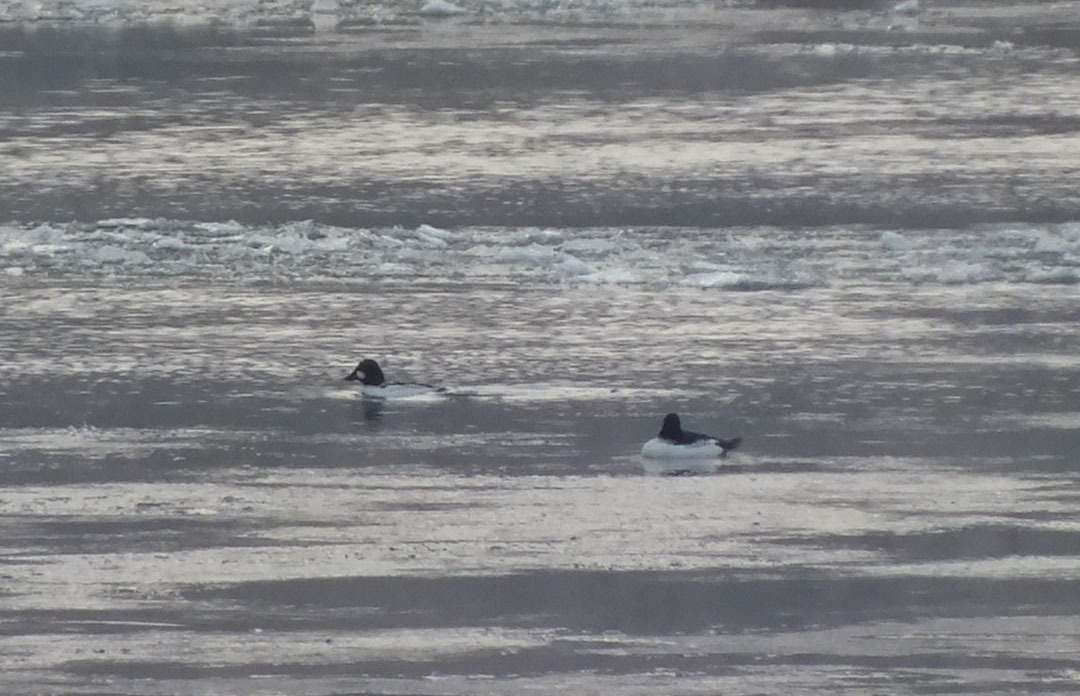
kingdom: Animalia
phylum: Chordata
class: Aves
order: Anseriformes
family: Anatidae
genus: Bucephala
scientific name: Bucephala clangula
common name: Common goldeneye
